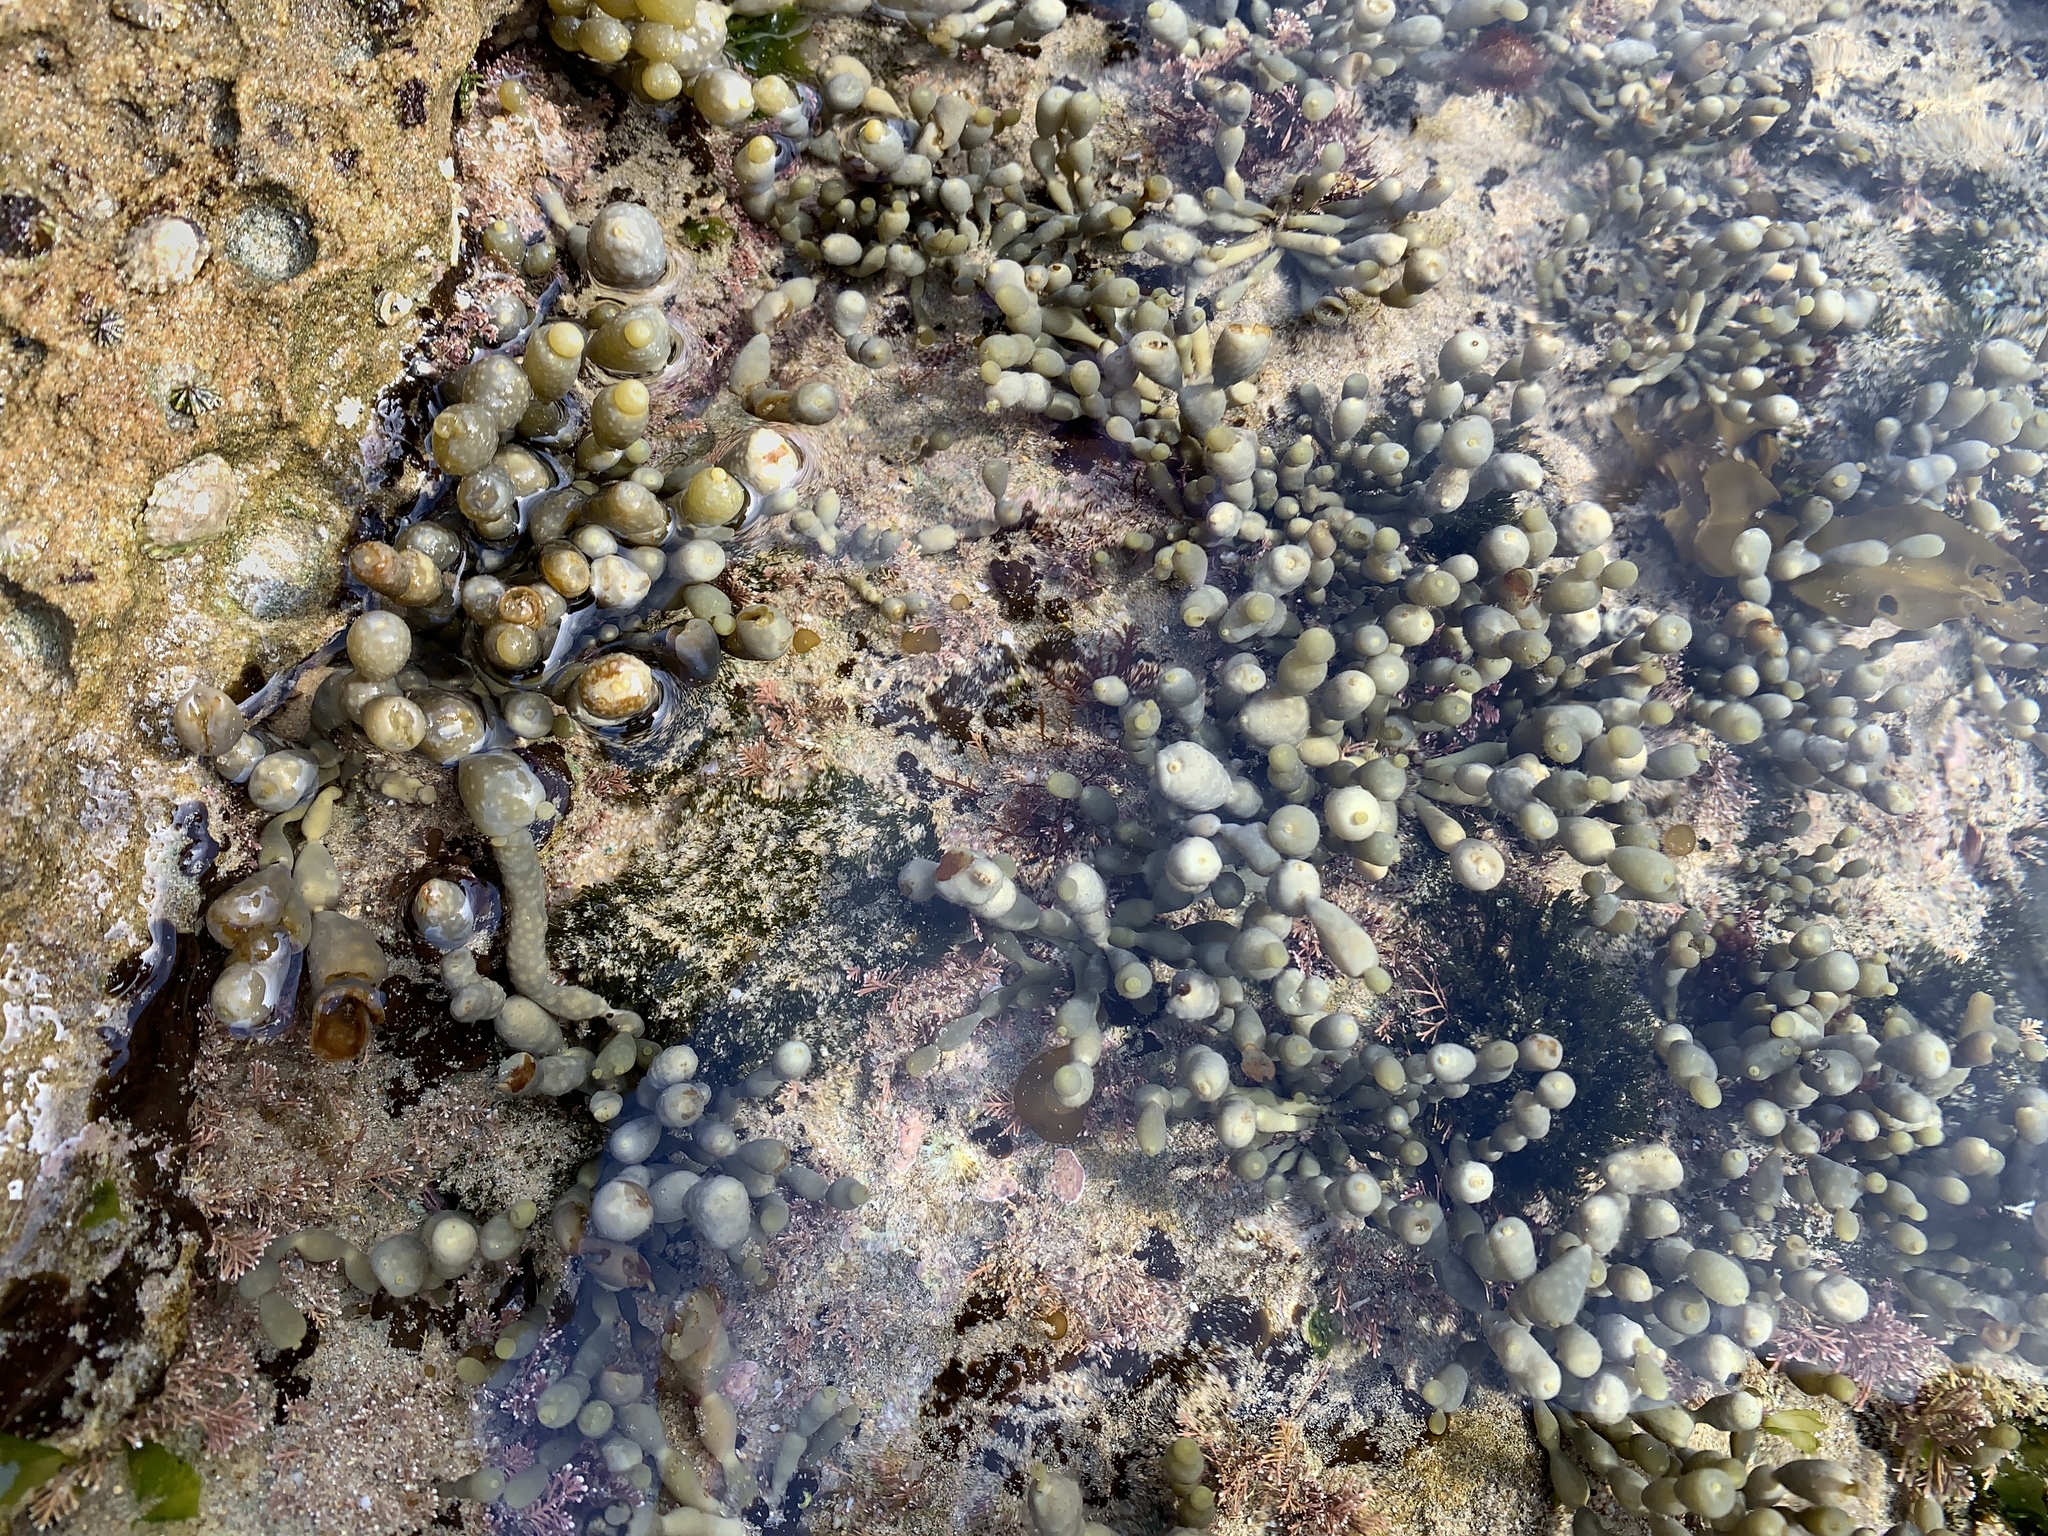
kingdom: Chromista
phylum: Ochrophyta
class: Phaeophyceae
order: Fucales
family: Hormosiraceae
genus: Hormosira
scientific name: Hormosira banksii
